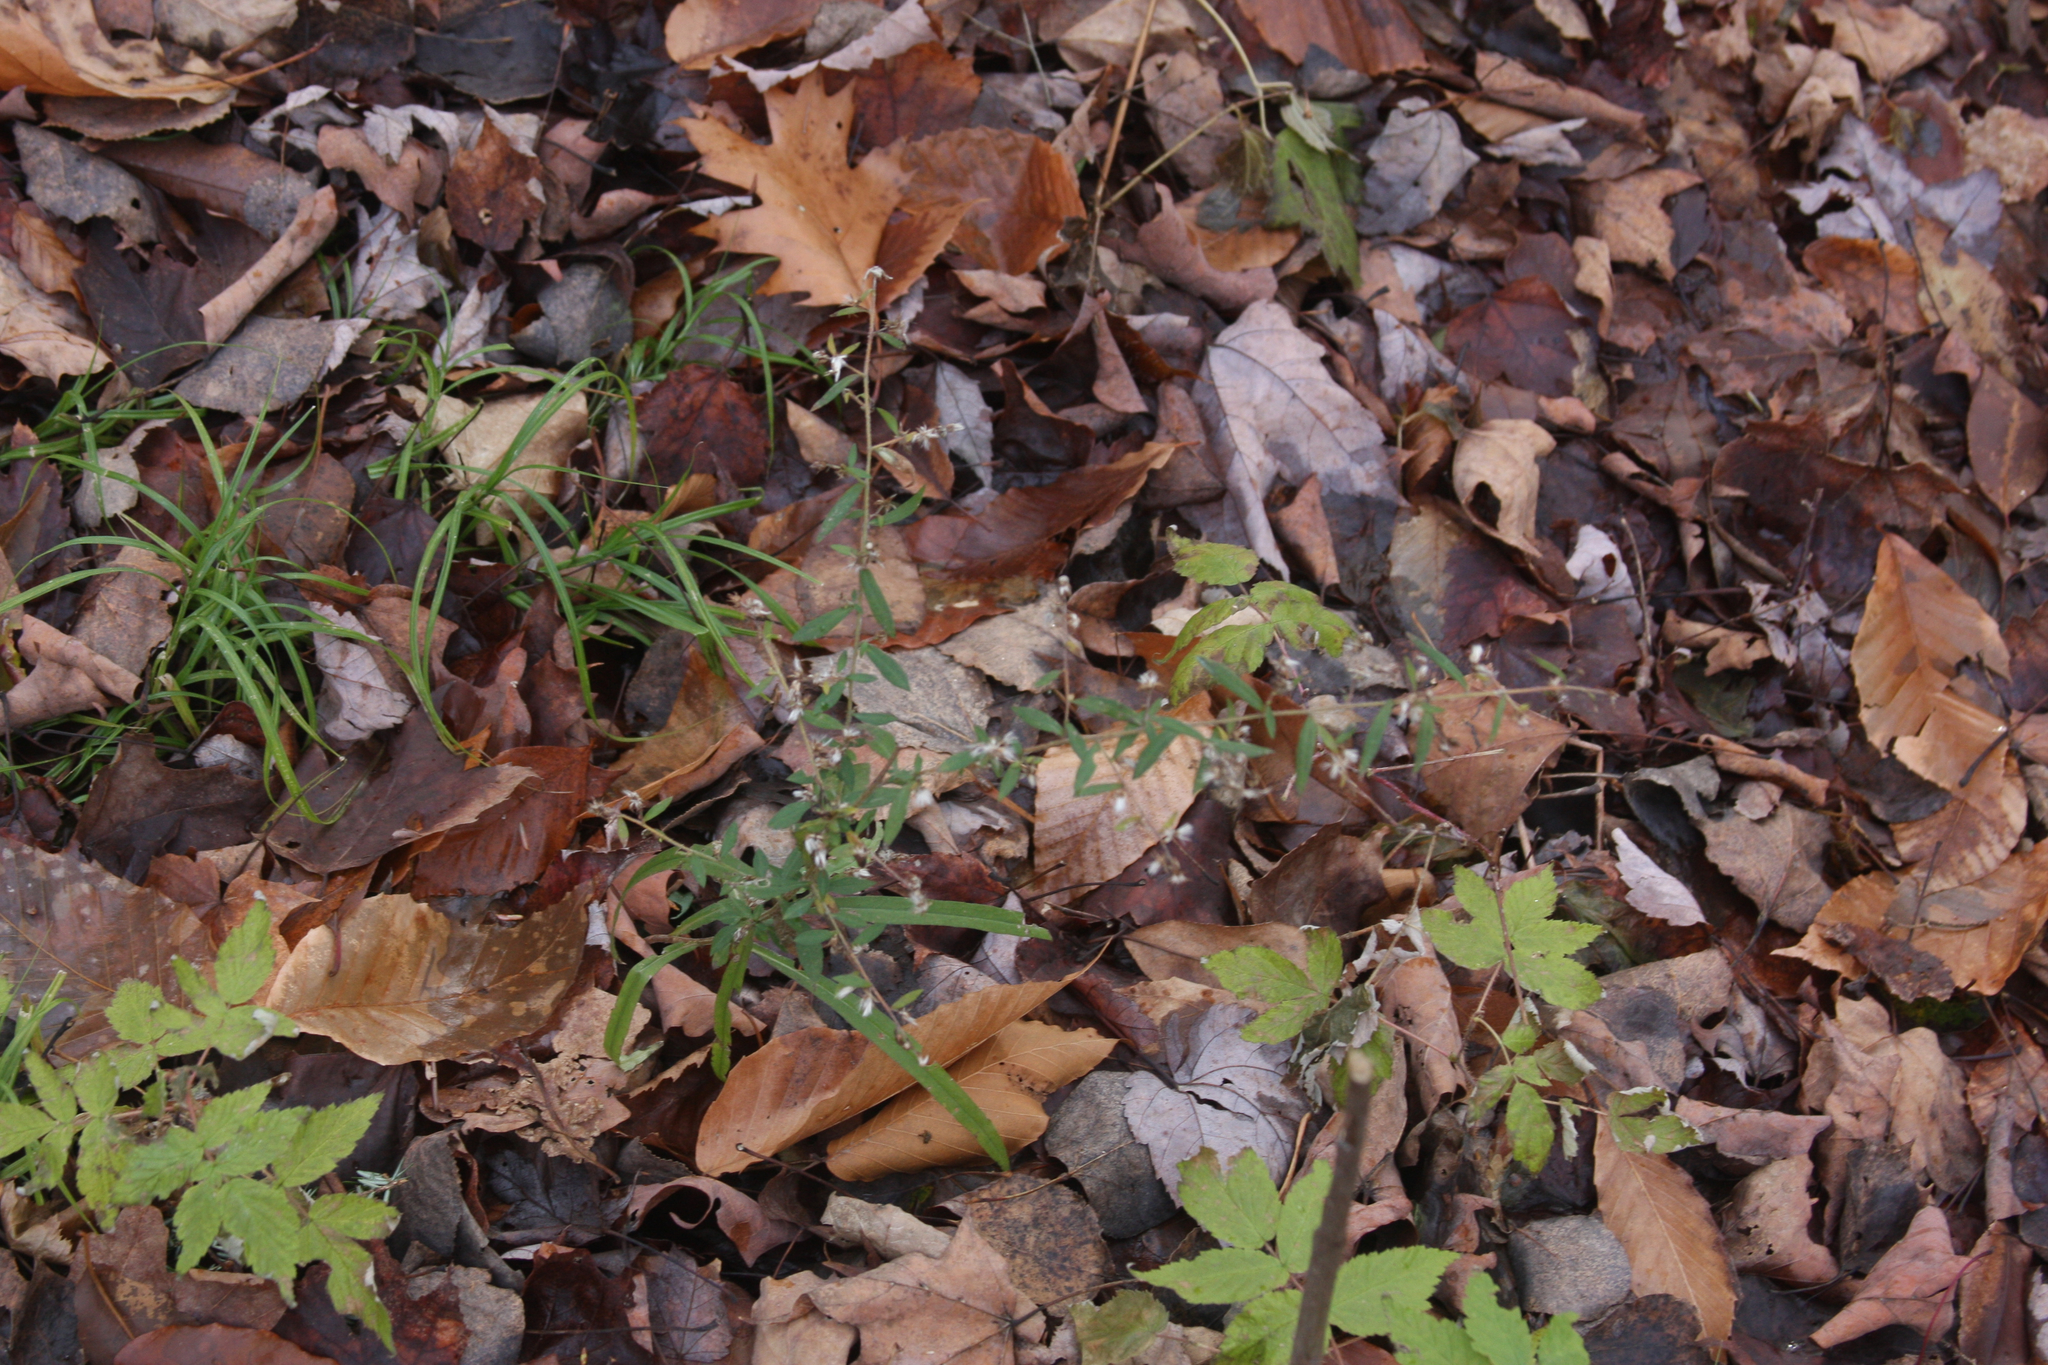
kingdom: Plantae
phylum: Tracheophyta
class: Magnoliopsida
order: Asterales
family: Asteraceae
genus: Symphyotrichum
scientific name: Symphyotrichum lateriflorum
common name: Calico aster
